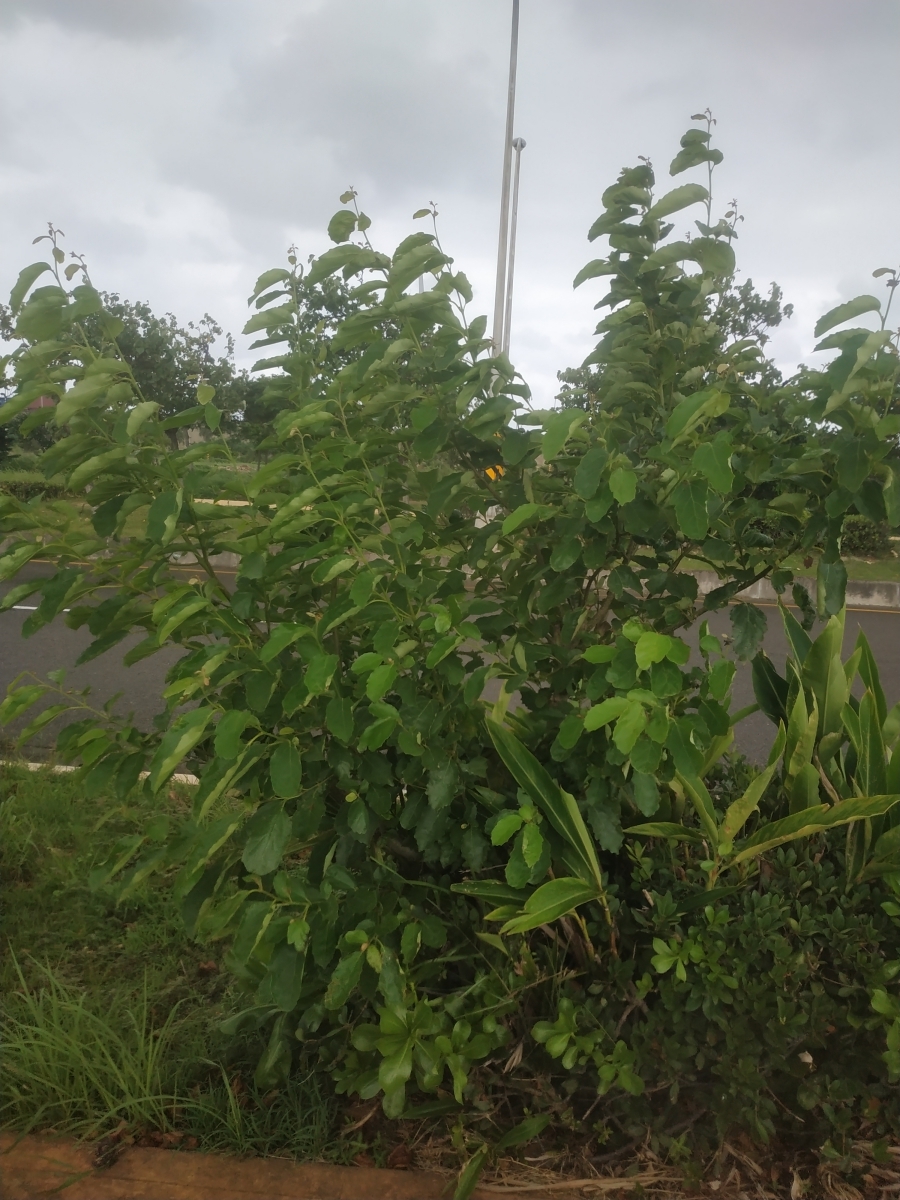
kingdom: Plantae
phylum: Tracheophyta
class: Magnoliopsida
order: Boraginales
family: Cordiaceae
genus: Cordia
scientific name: Cordia dichotoma
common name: Fragrant manjack
